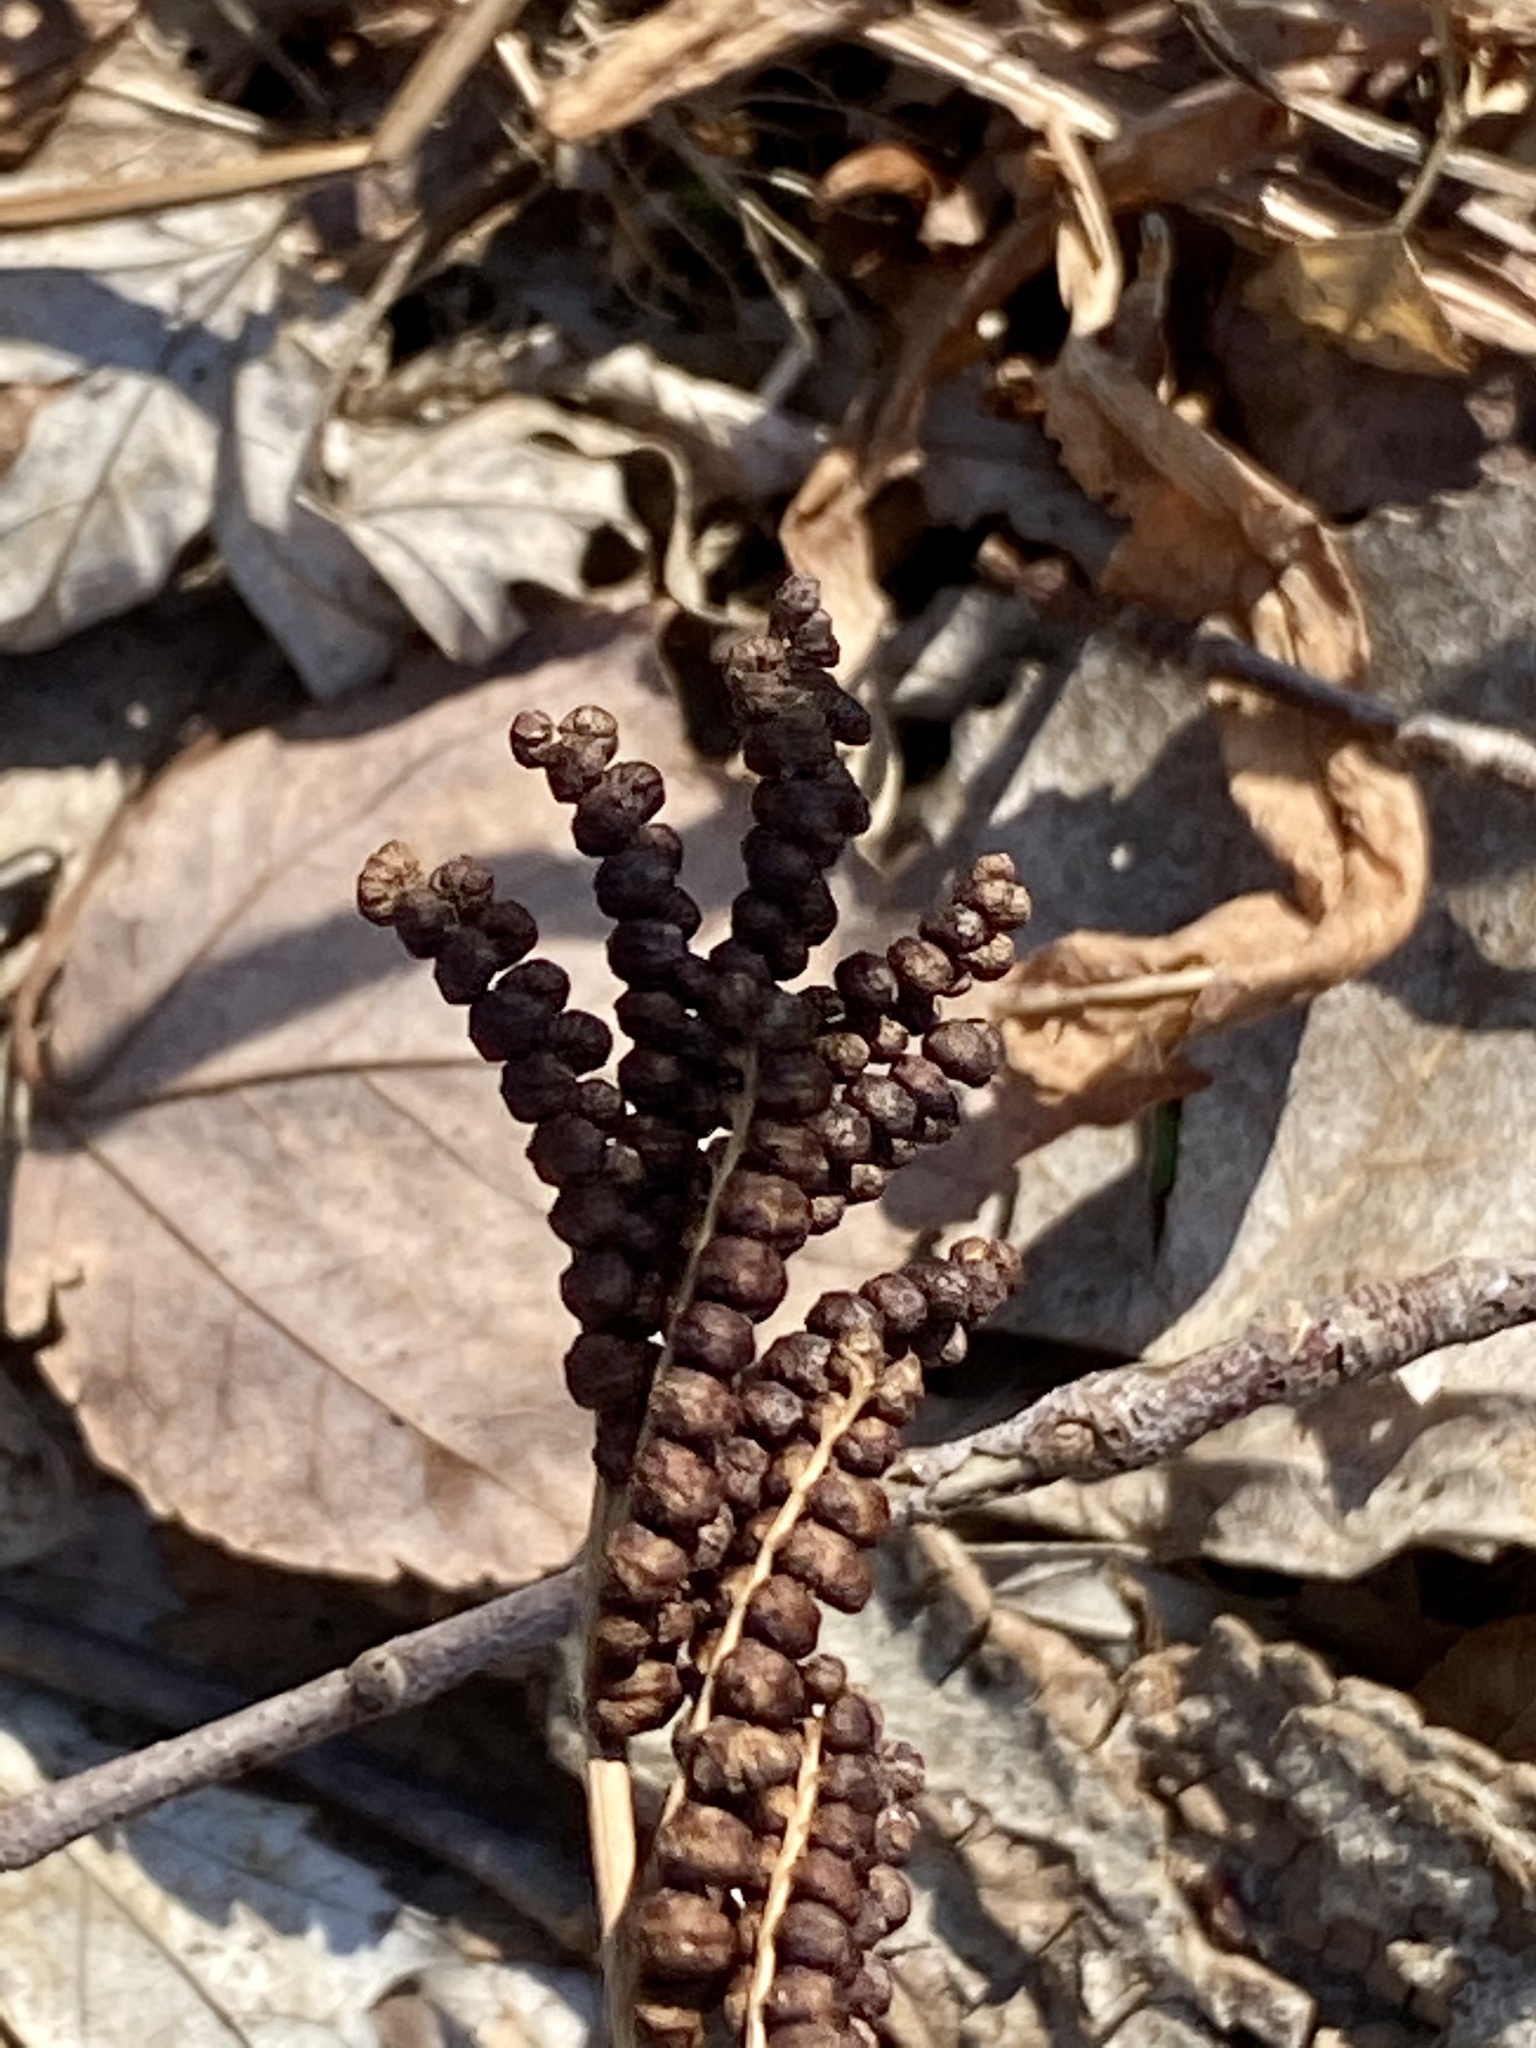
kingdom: Plantae
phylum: Tracheophyta
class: Polypodiopsida
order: Polypodiales
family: Onocleaceae
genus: Onoclea
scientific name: Onoclea sensibilis
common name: Sensitive fern
